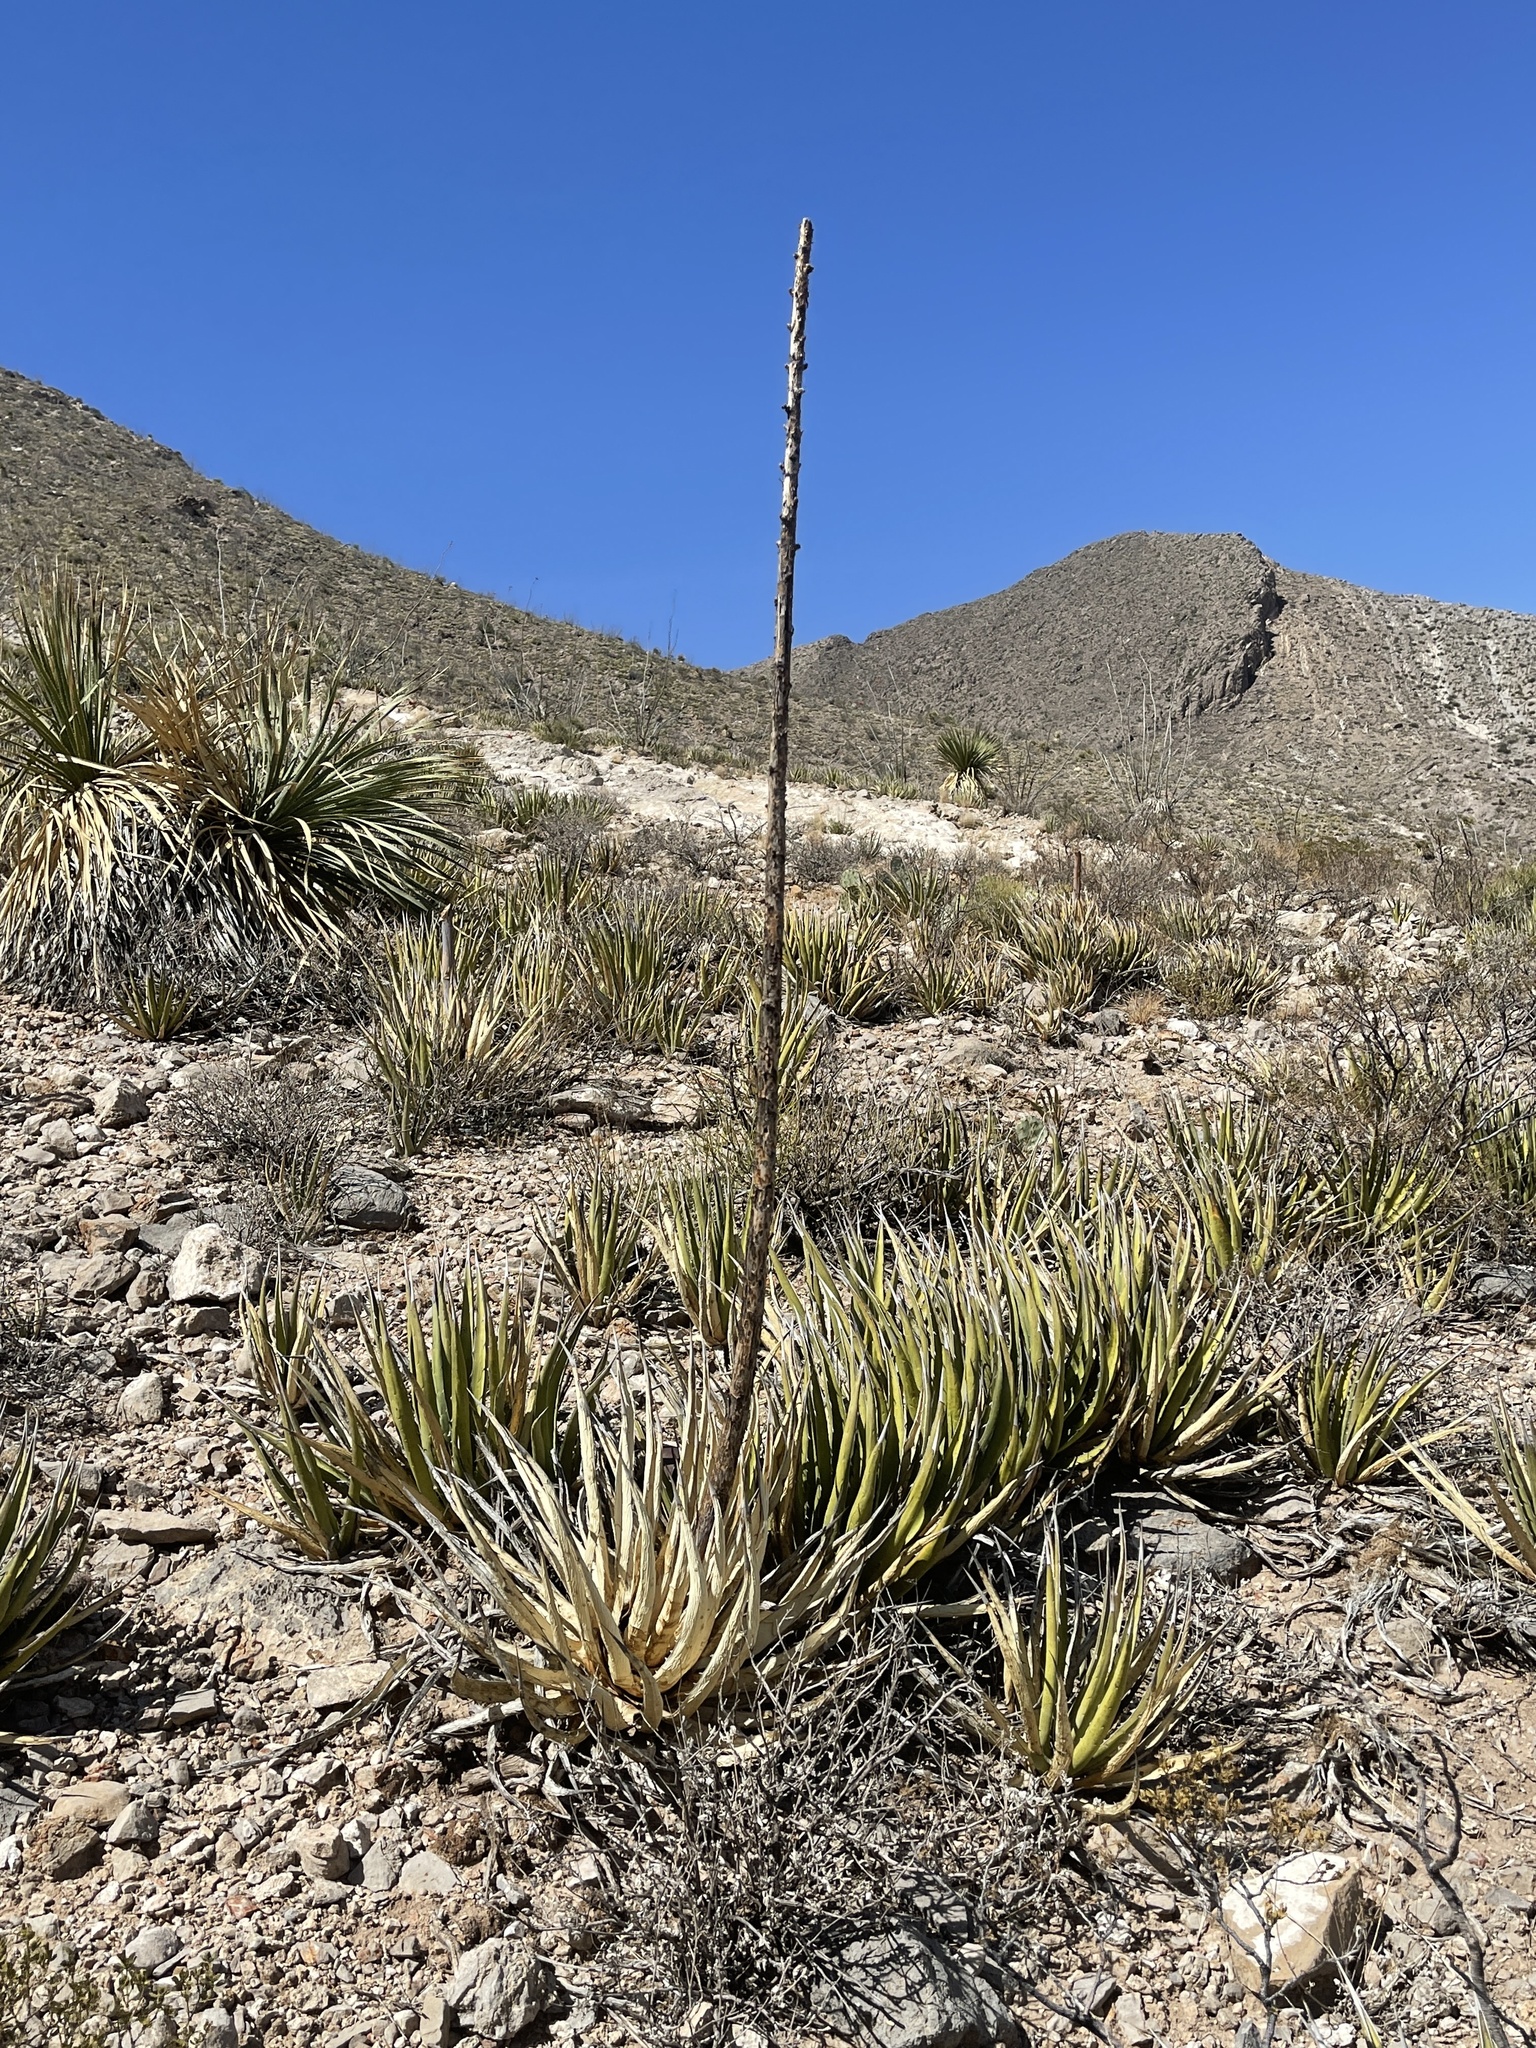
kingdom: Plantae
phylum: Tracheophyta
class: Liliopsida
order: Asparagales
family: Asparagaceae
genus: Agave
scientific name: Agave lechuguilla
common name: Lecheguilla agave
